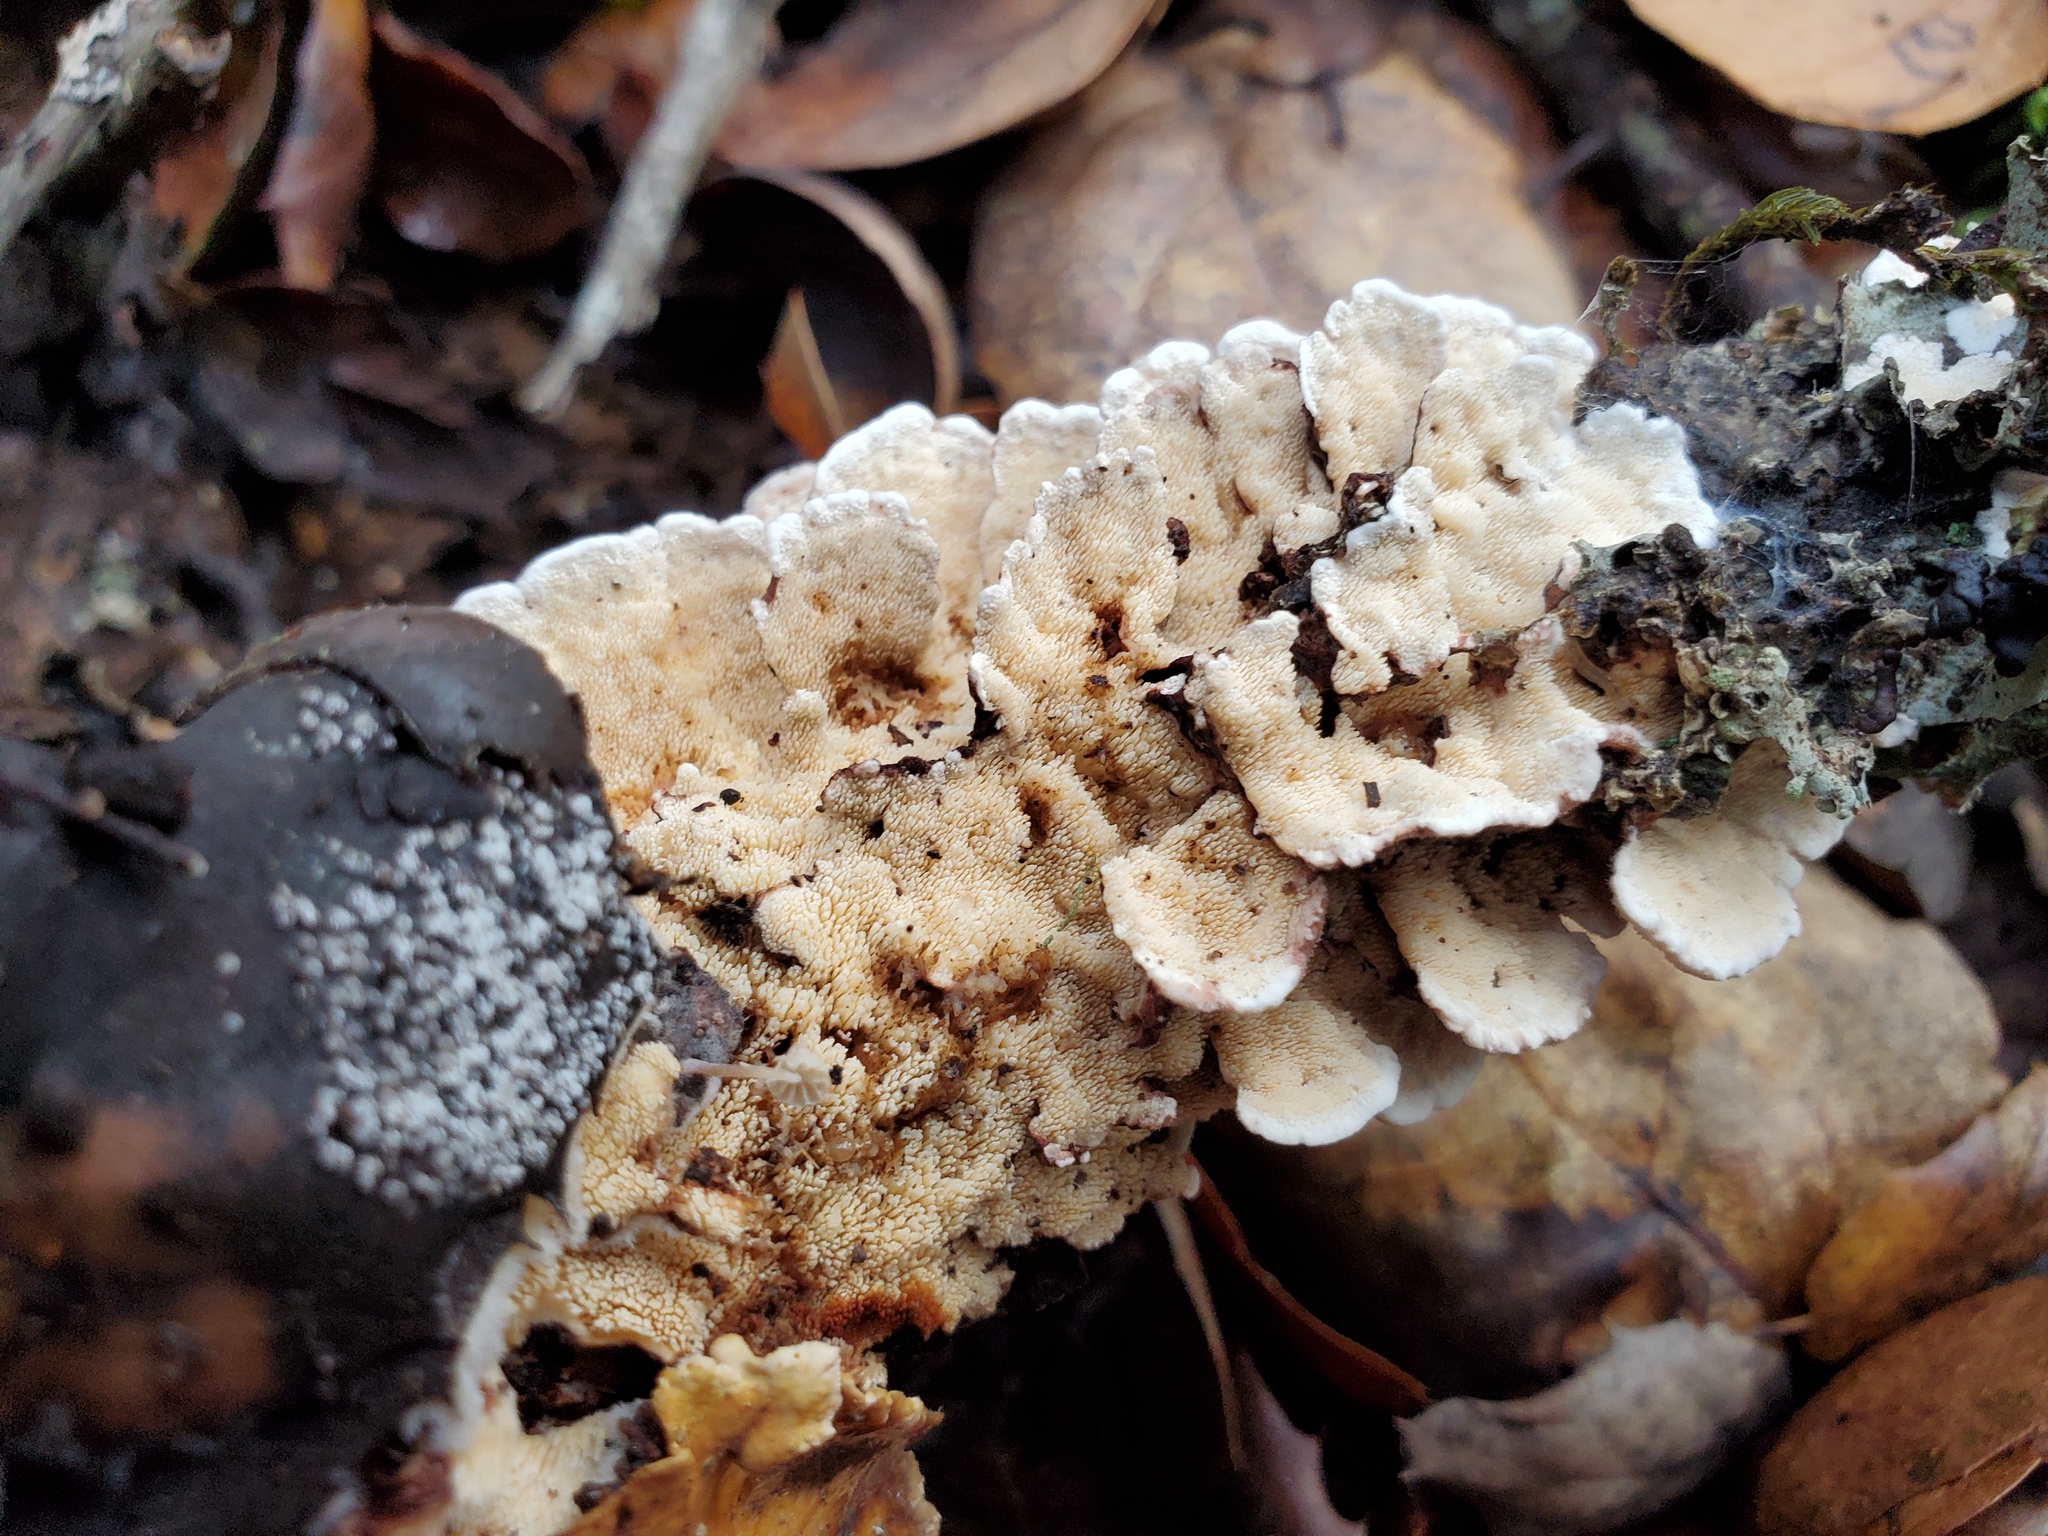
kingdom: Fungi
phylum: Basidiomycota
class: Agaricomycetes
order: Polyporales
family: Steccherinaceae
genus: Steccherinum
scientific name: Steccherinum ochraceum
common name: Ochre spreading tooth
